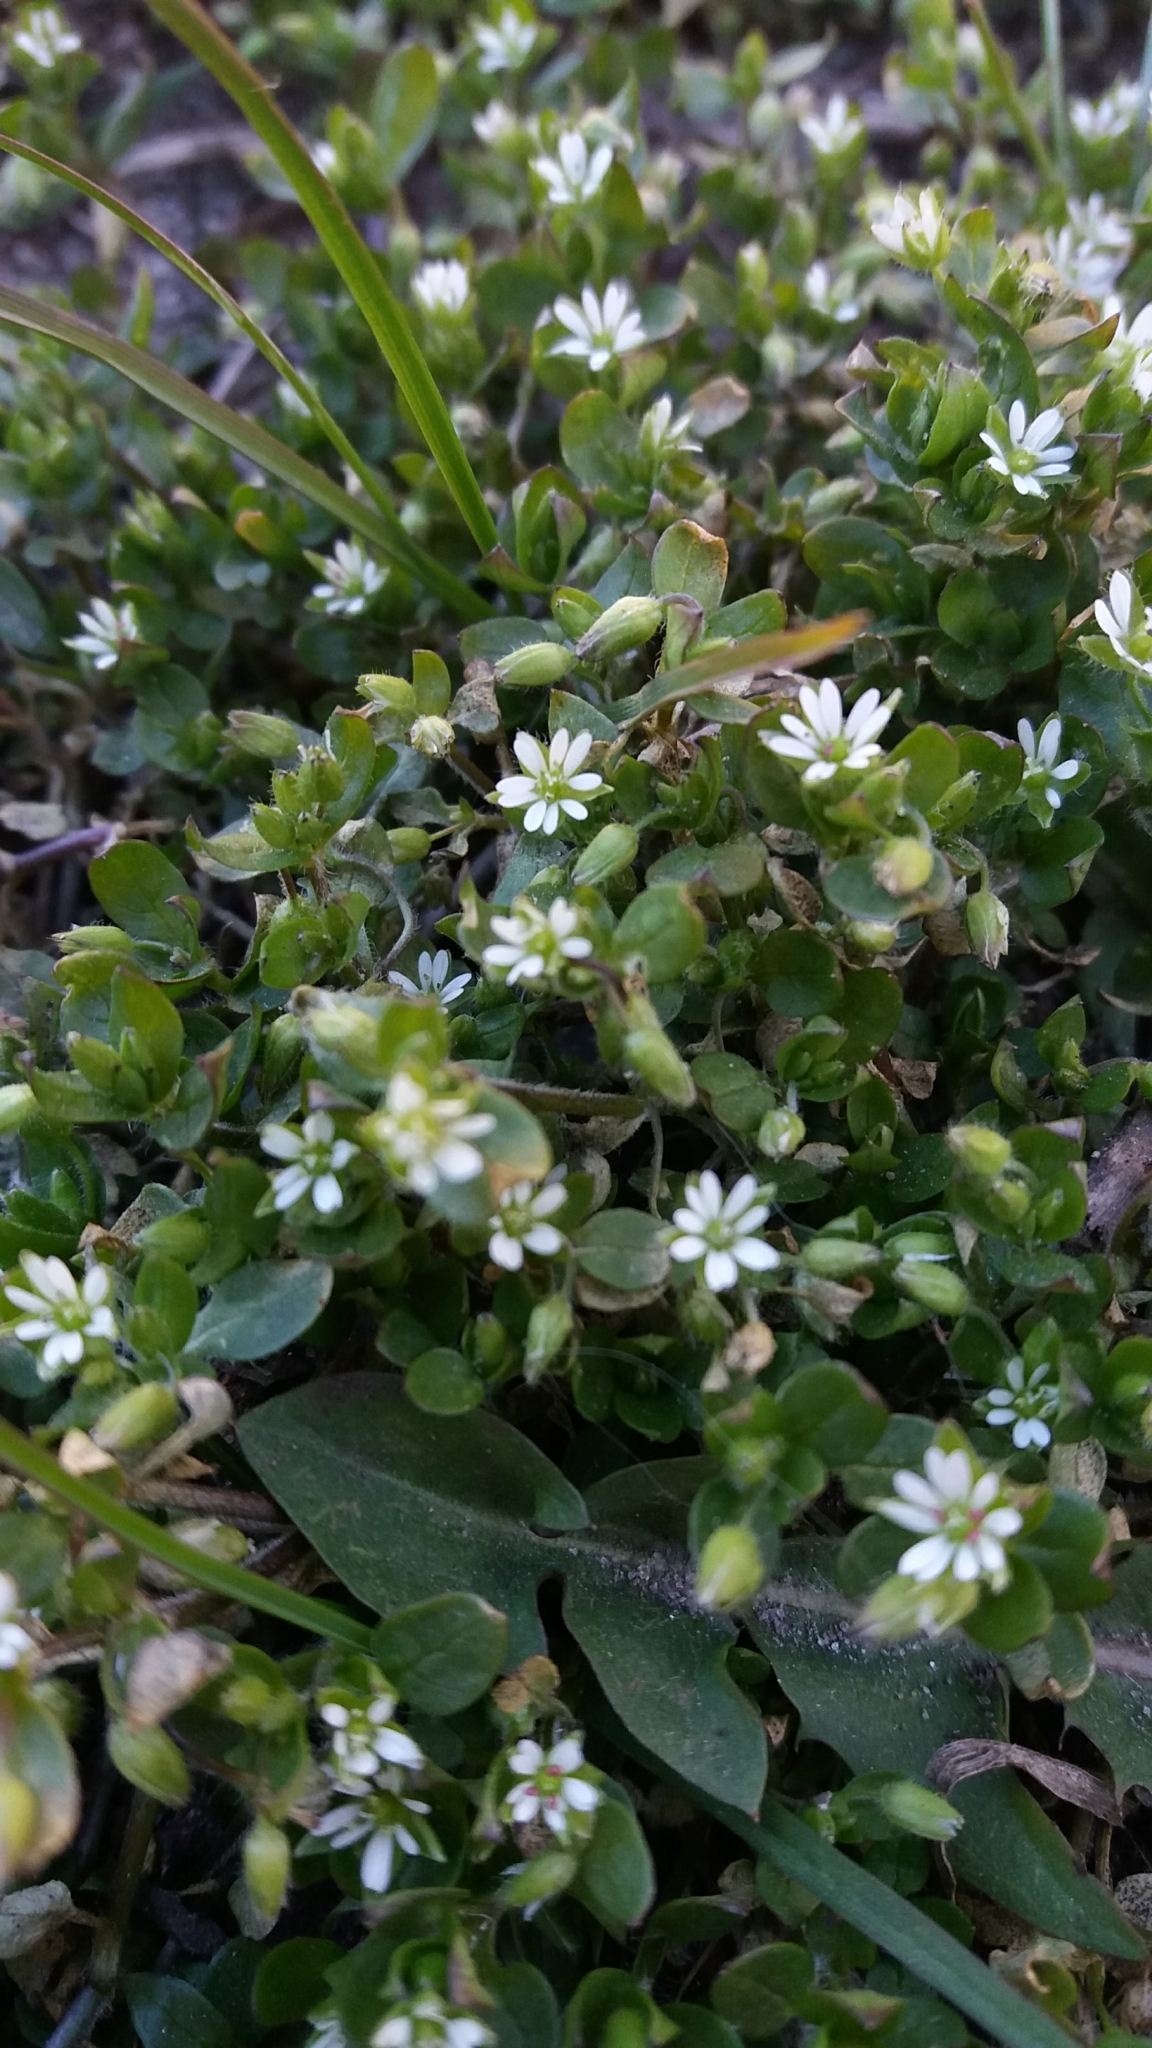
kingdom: Plantae
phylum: Tracheophyta
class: Magnoliopsida
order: Caryophyllales
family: Caryophyllaceae
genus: Stellaria
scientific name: Stellaria media
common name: Common chickweed
